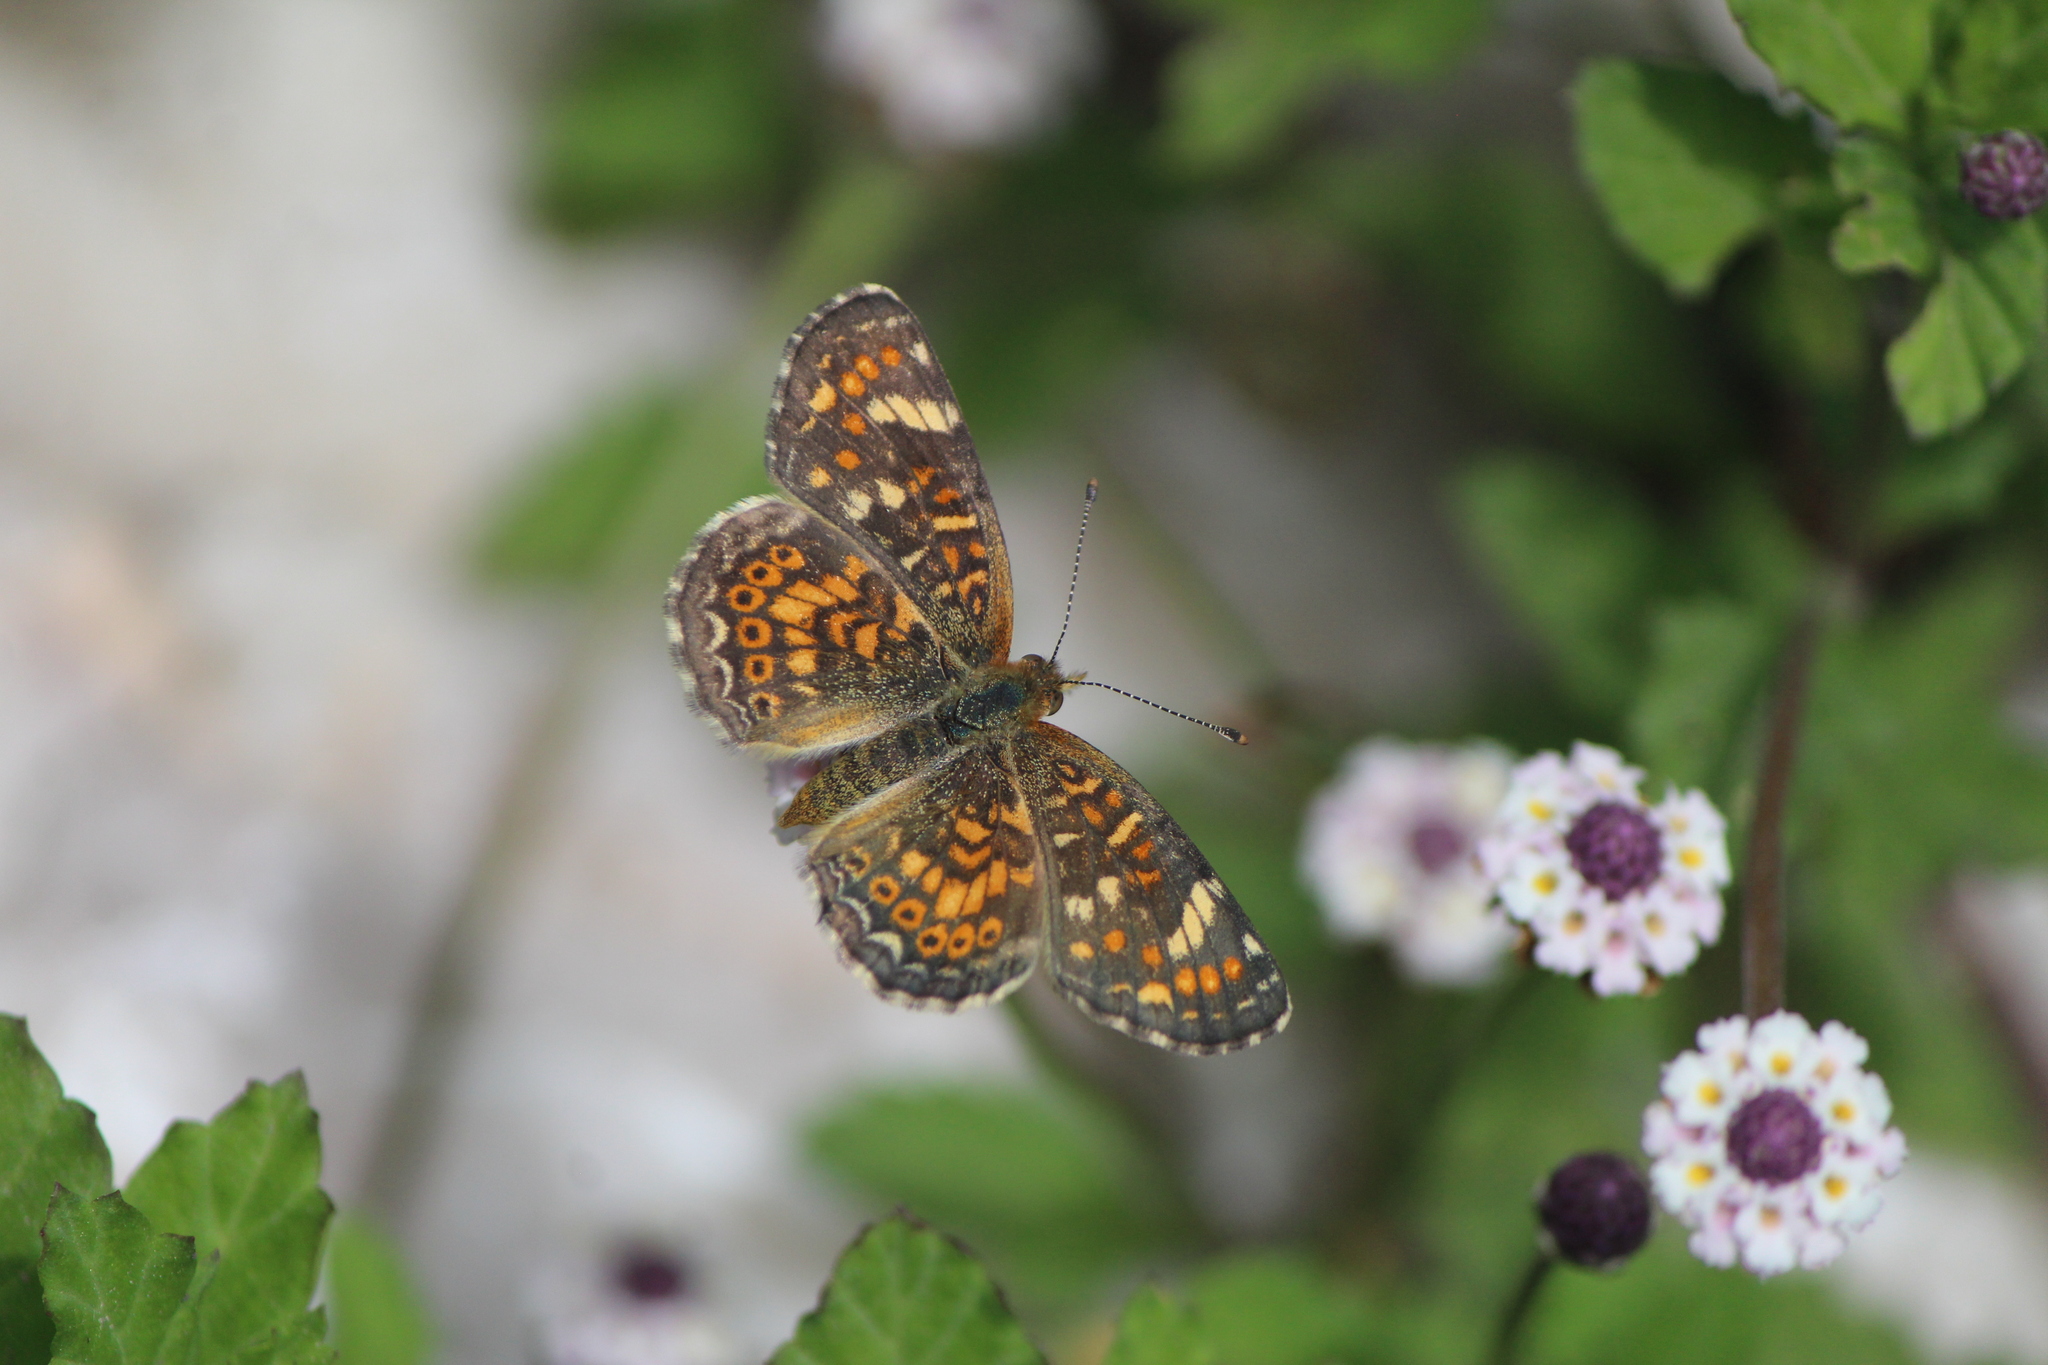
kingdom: Animalia
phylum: Arthropoda
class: Insecta
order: Lepidoptera
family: Nymphalidae
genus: Phyciodes
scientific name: Phyciodes picta
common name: Painted crescent
